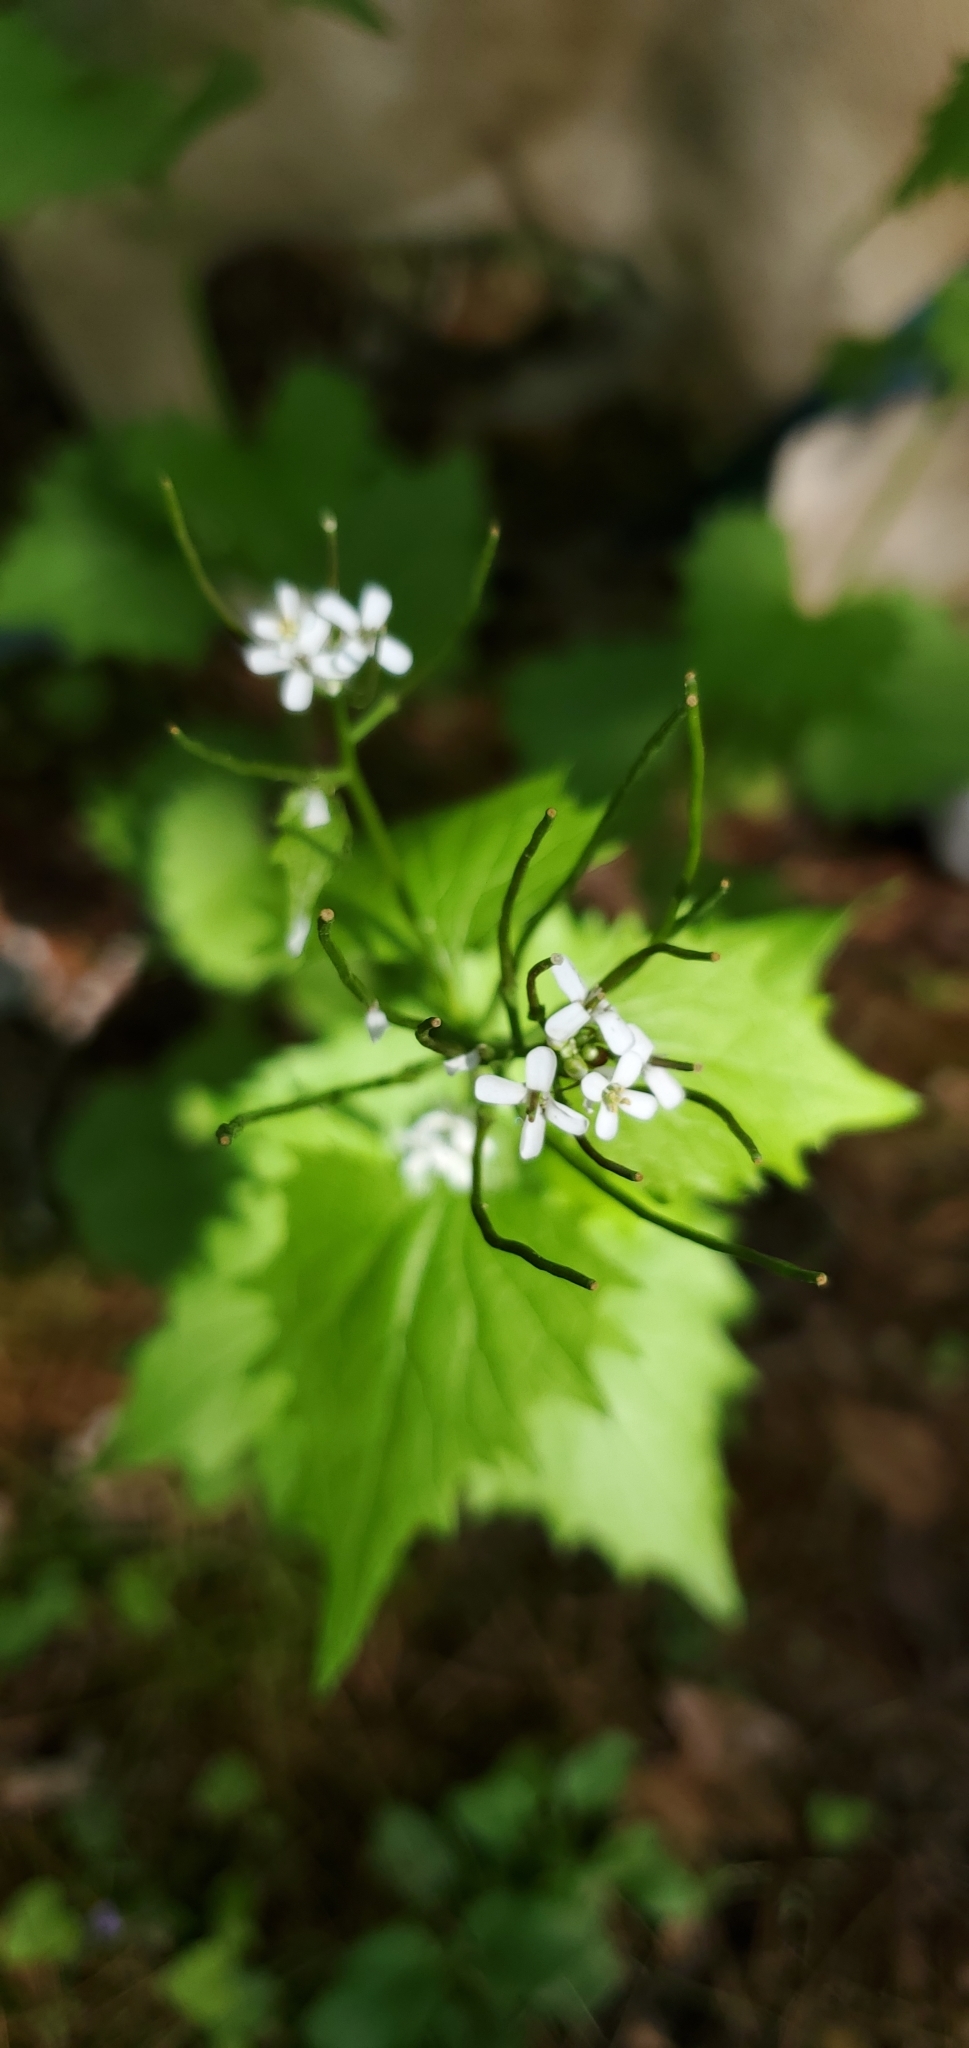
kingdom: Plantae
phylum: Tracheophyta
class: Magnoliopsida
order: Brassicales
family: Brassicaceae
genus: Alliaria
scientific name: Alliaria petiolata
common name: Garlic mustard
